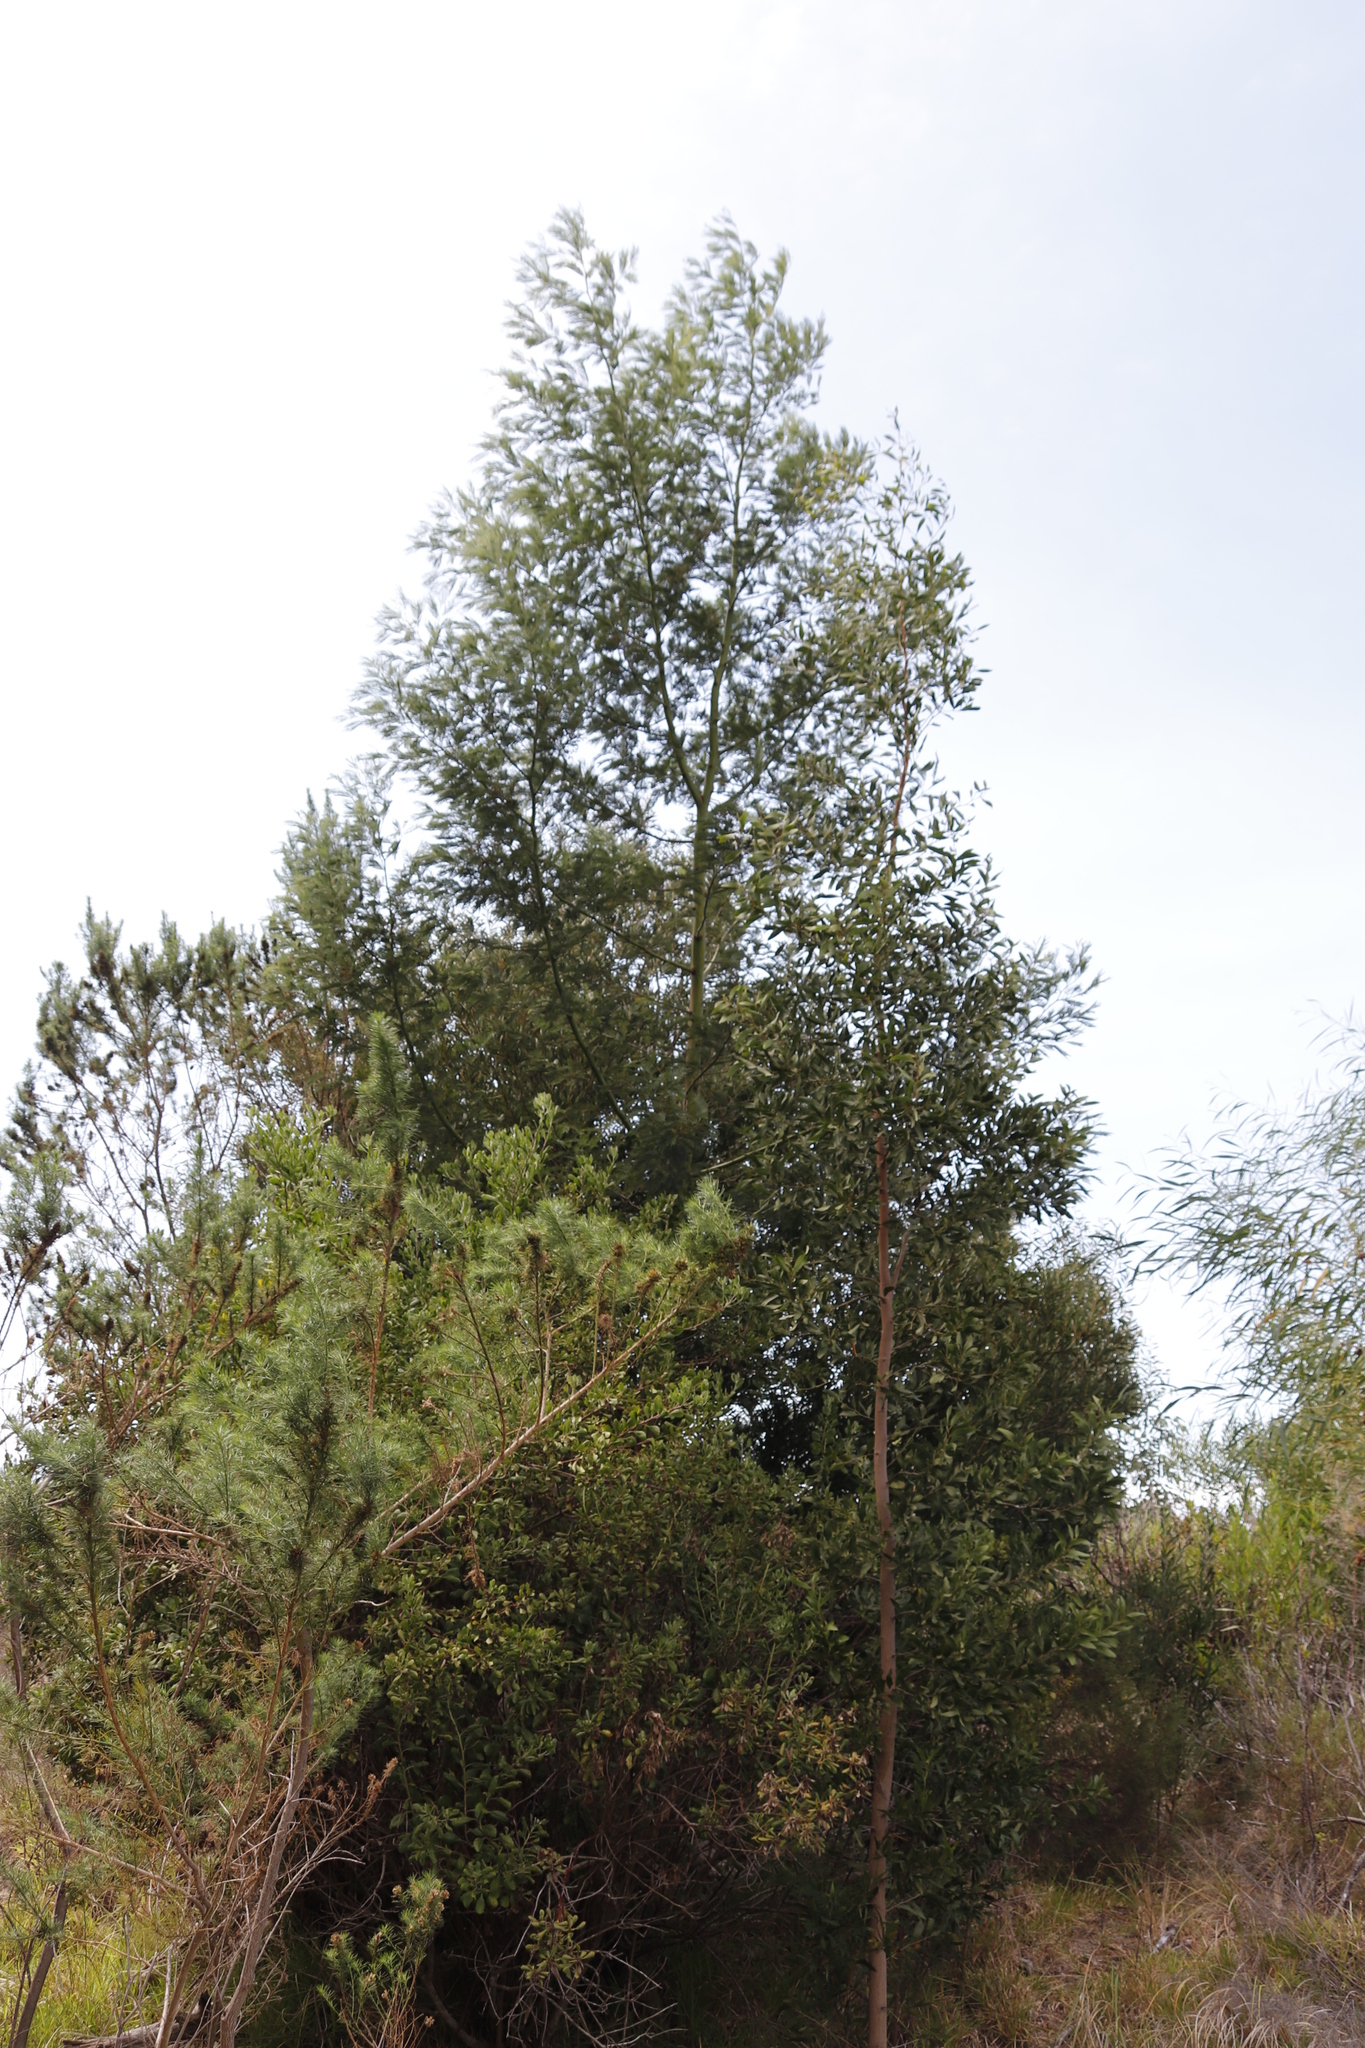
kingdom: Plantae
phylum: Tracheophyta
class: Magnoliopsida
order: Fabales
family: Fabaceae
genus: Acacia
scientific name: Acacia mearnsii
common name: Black wattle
